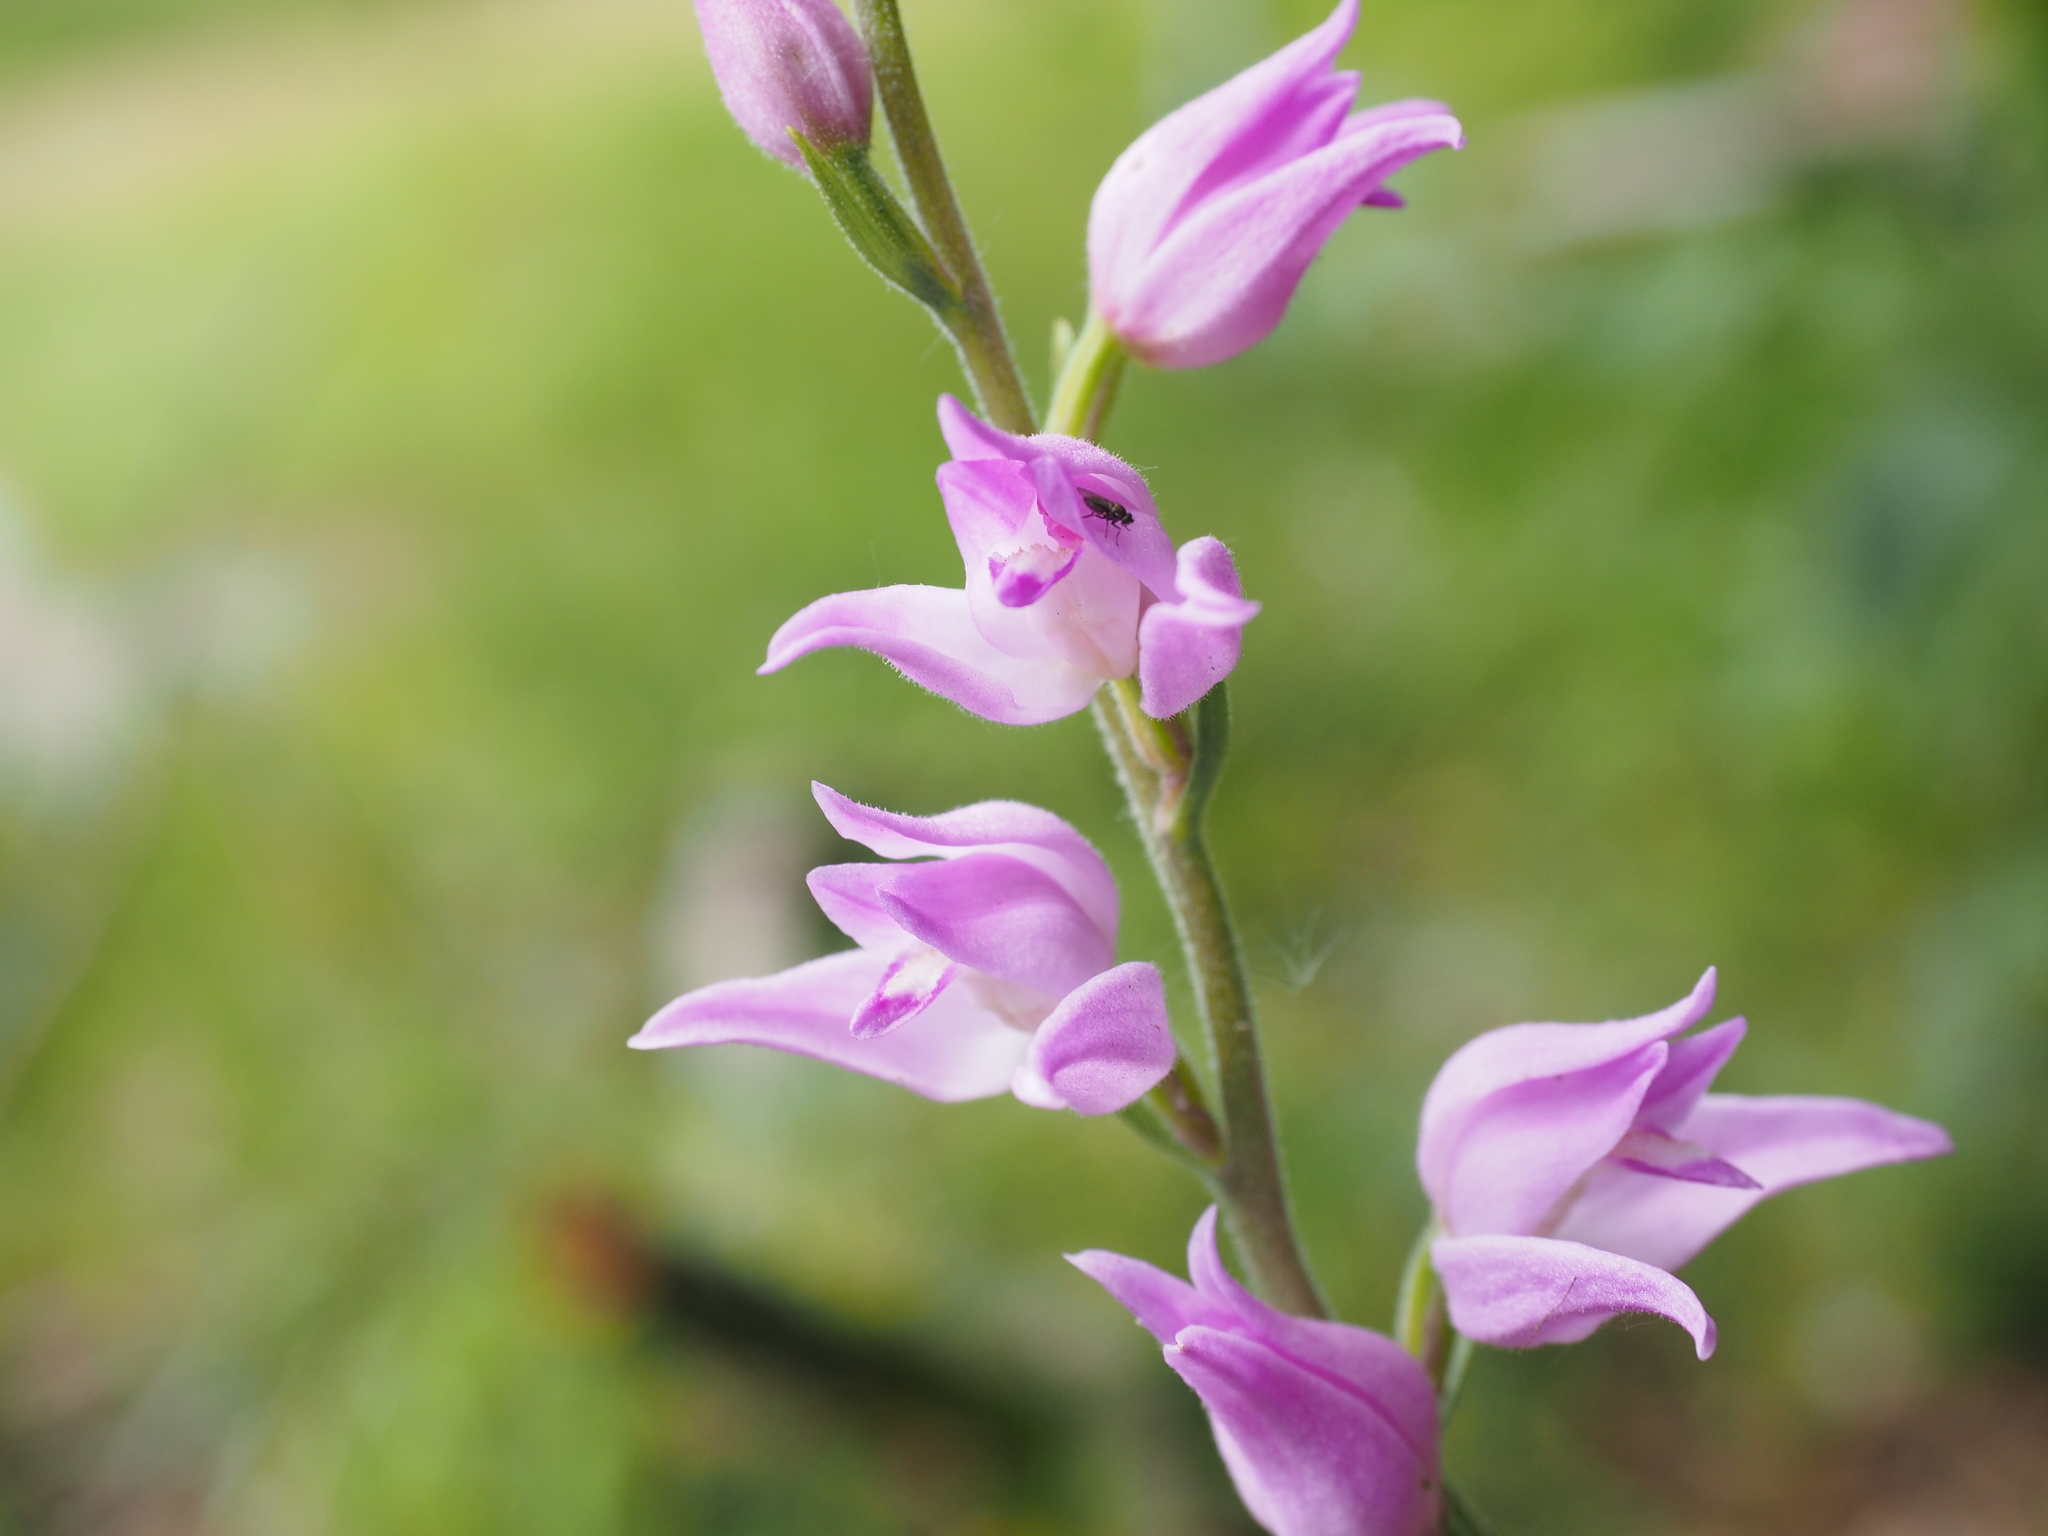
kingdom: Plantae
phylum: Tracheophyta
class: Liliopsida
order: Asparagales
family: Orchidaceae
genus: Cephalanthera
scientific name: Cephalanthera rubra
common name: Red helleborine
